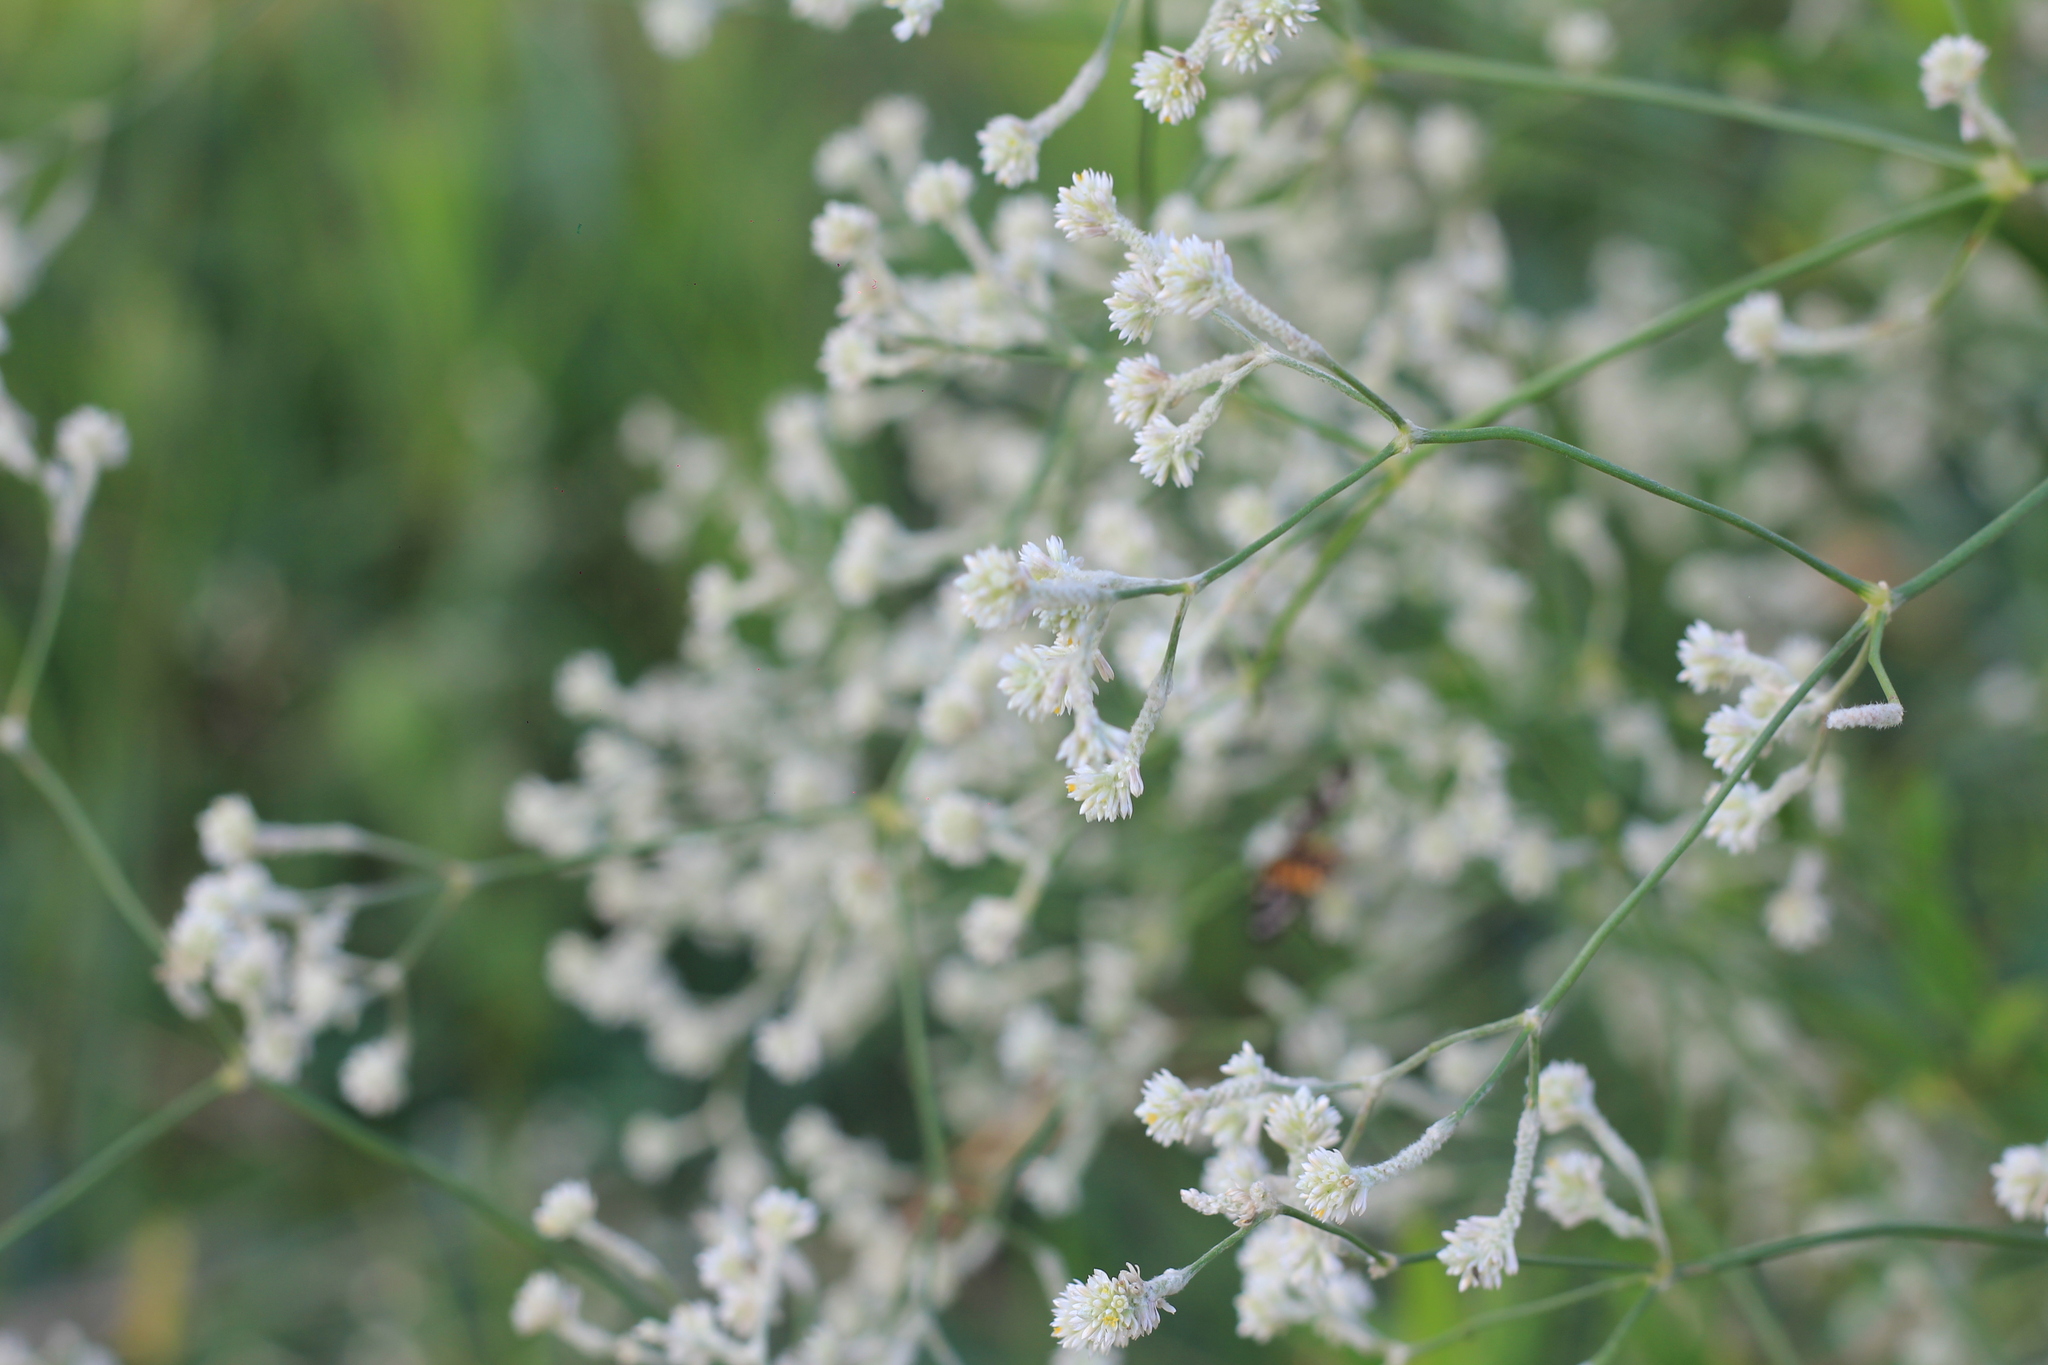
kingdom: Plantae
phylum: Tracheophyta
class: Magnoliopsida
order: Caryophyllales
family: Amaranthaceae
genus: Pfaffia
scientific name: Pfaffia glomerata
